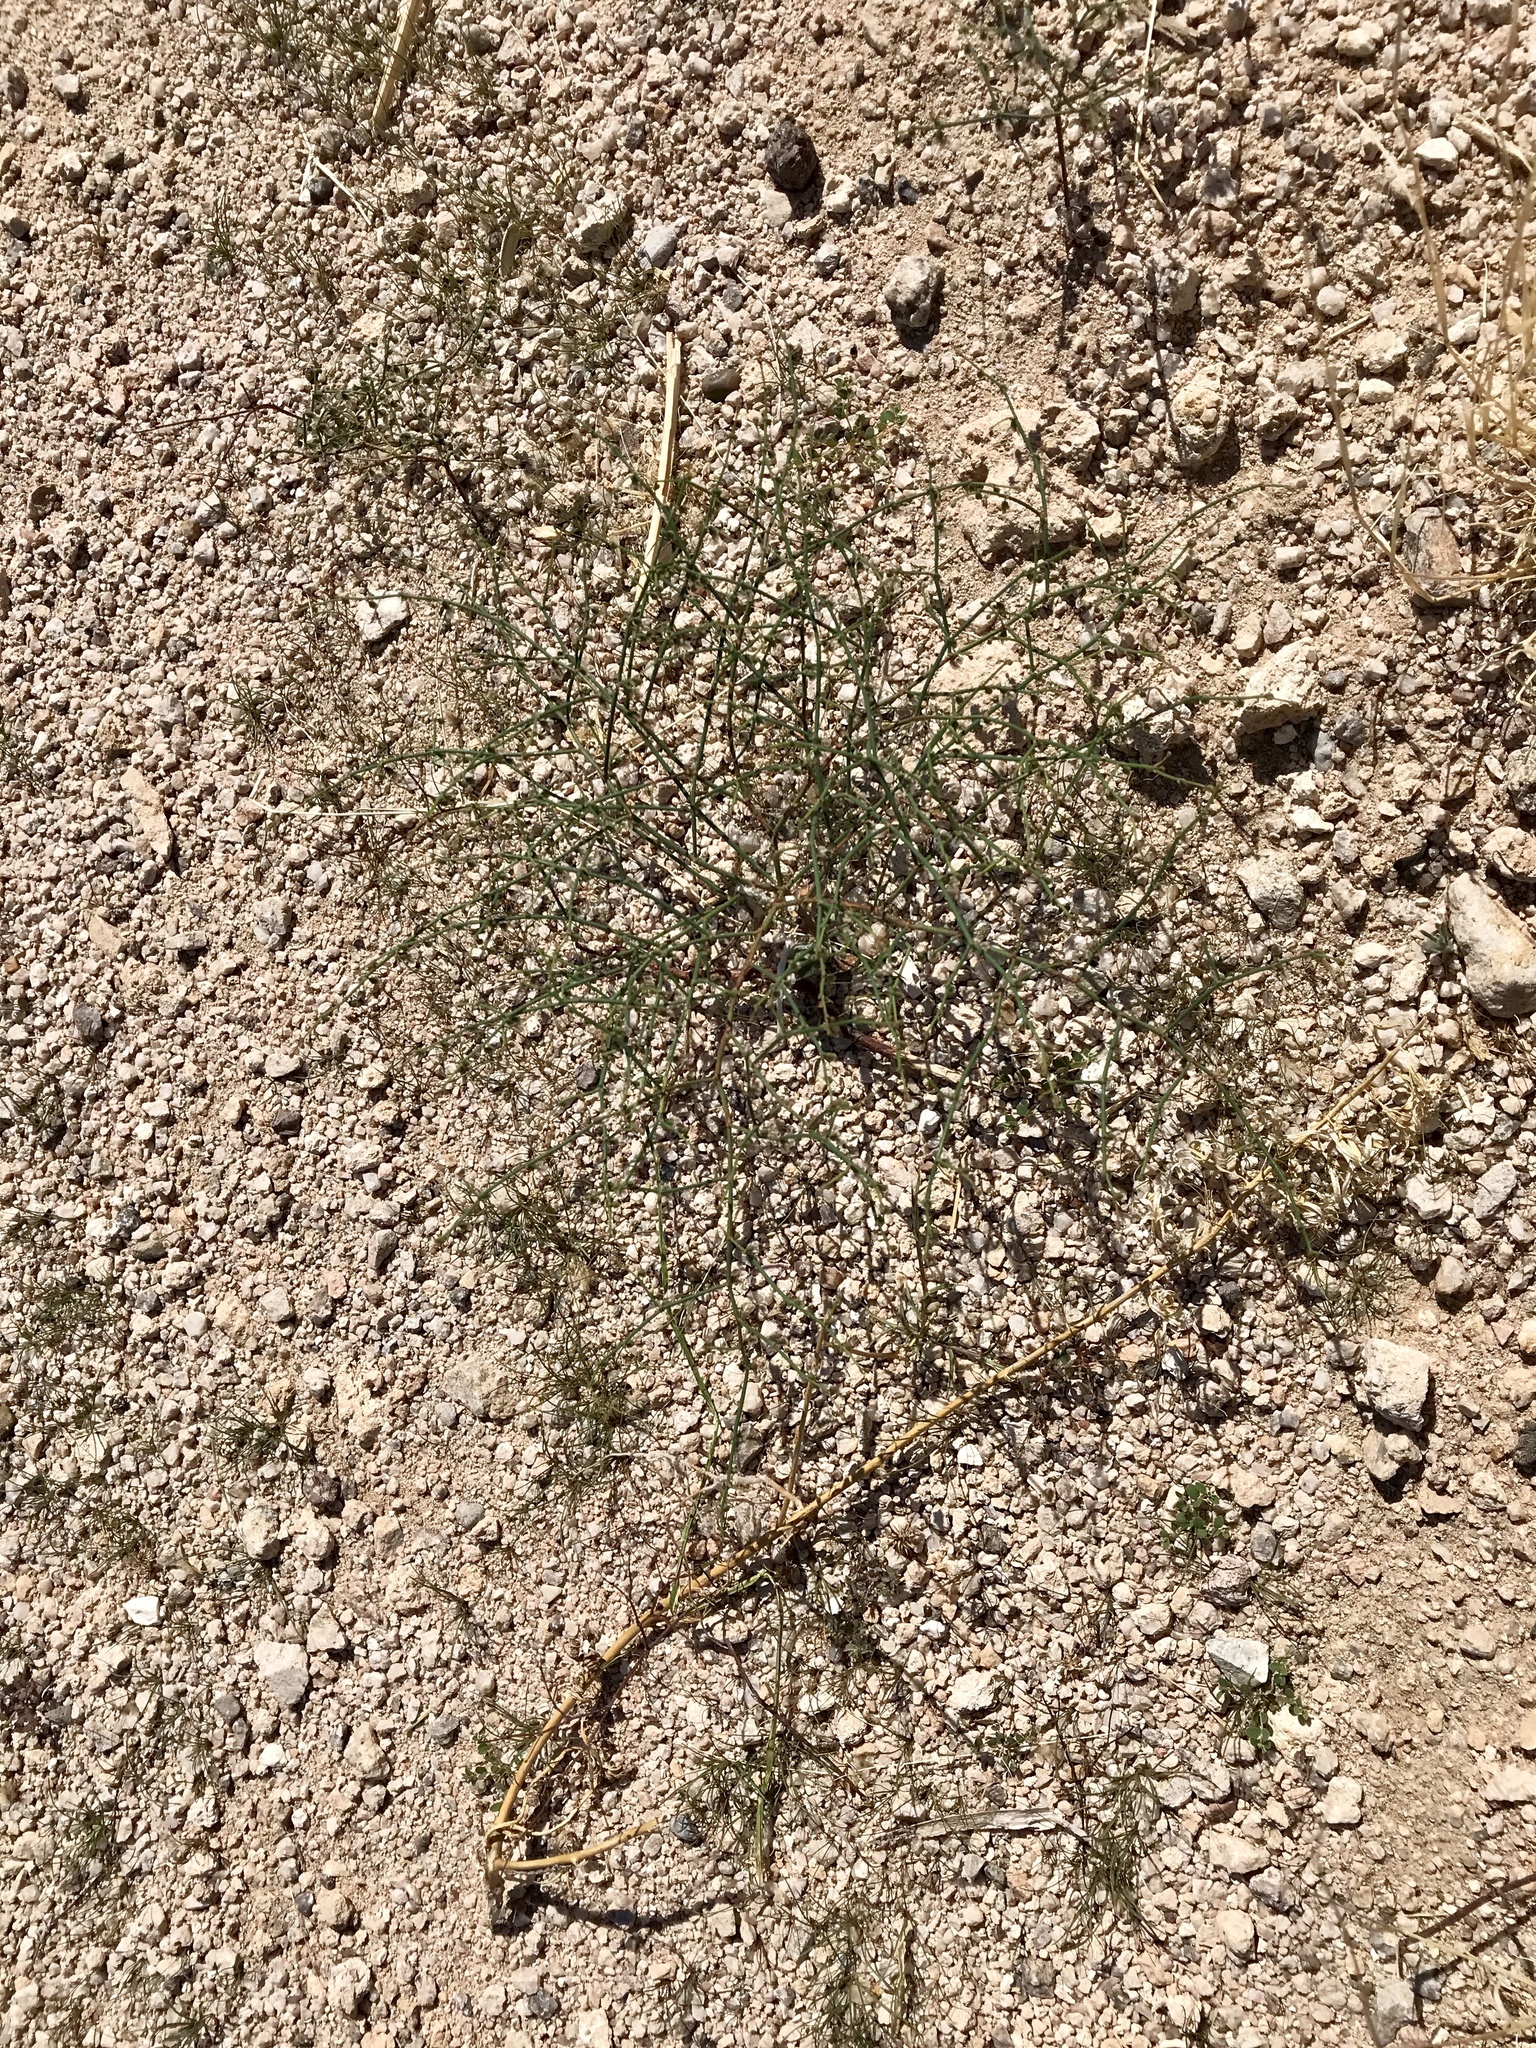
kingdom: Plantae
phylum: Tracheophyta
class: Magnoliopsida
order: Caryophyllales
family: Polygonaceae
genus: Eriogonum
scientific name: Eriogonum deflexum
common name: Skeleton-weed
